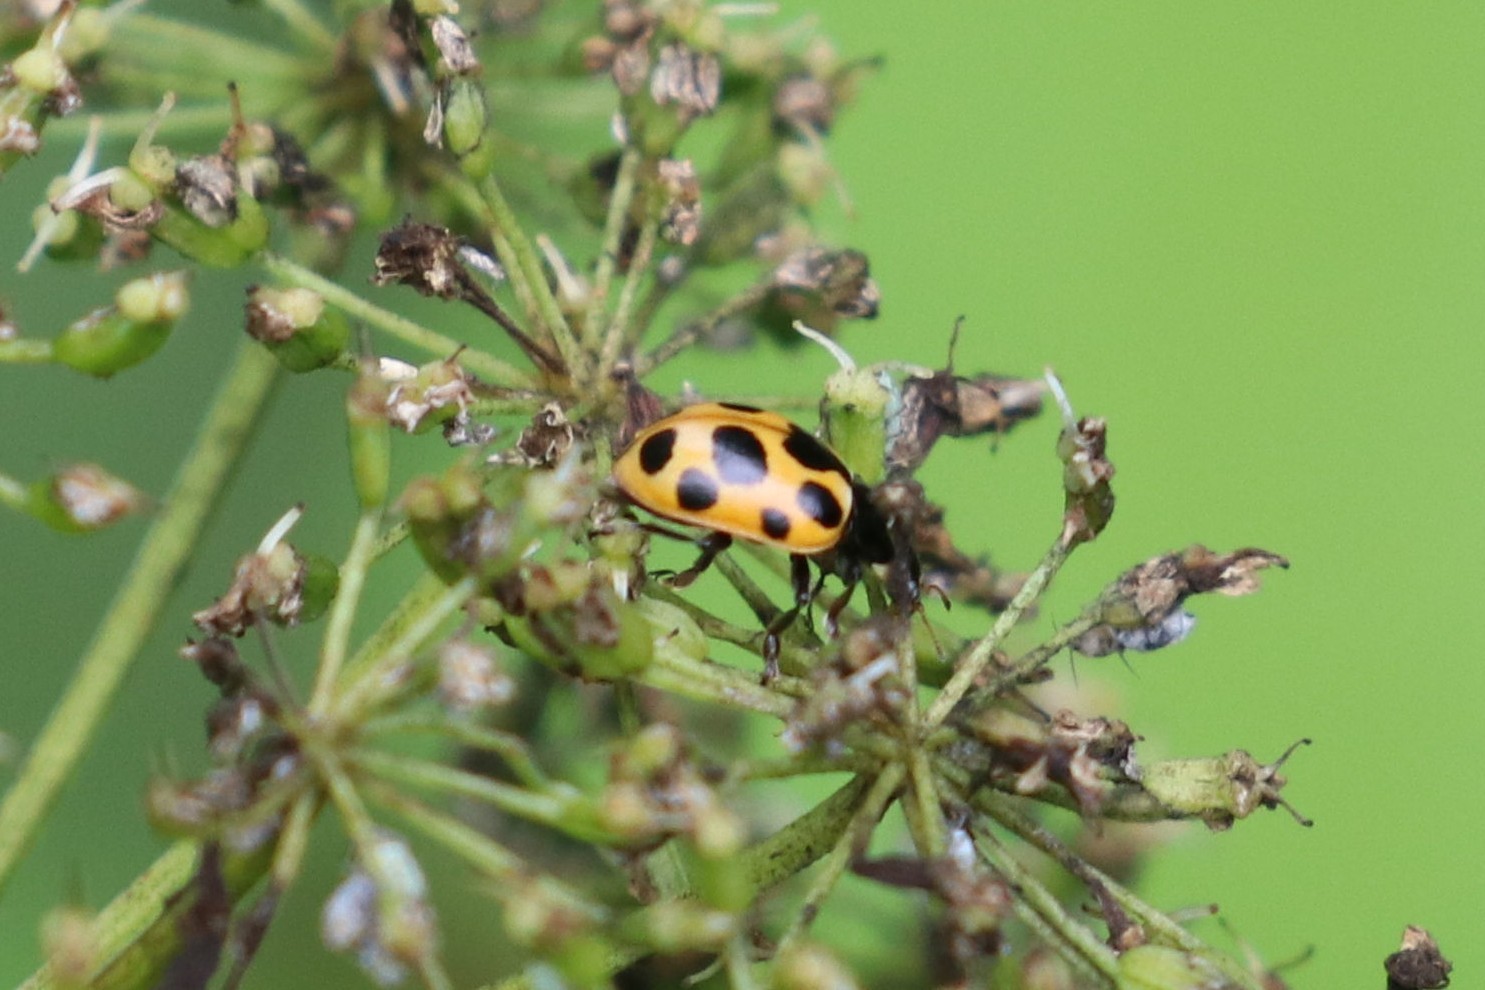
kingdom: Animalia
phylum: Arthropoda
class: Insecta
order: Coleoptera
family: Coccinellidae
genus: Ceratomegilla
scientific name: Ceratomegilla notata
